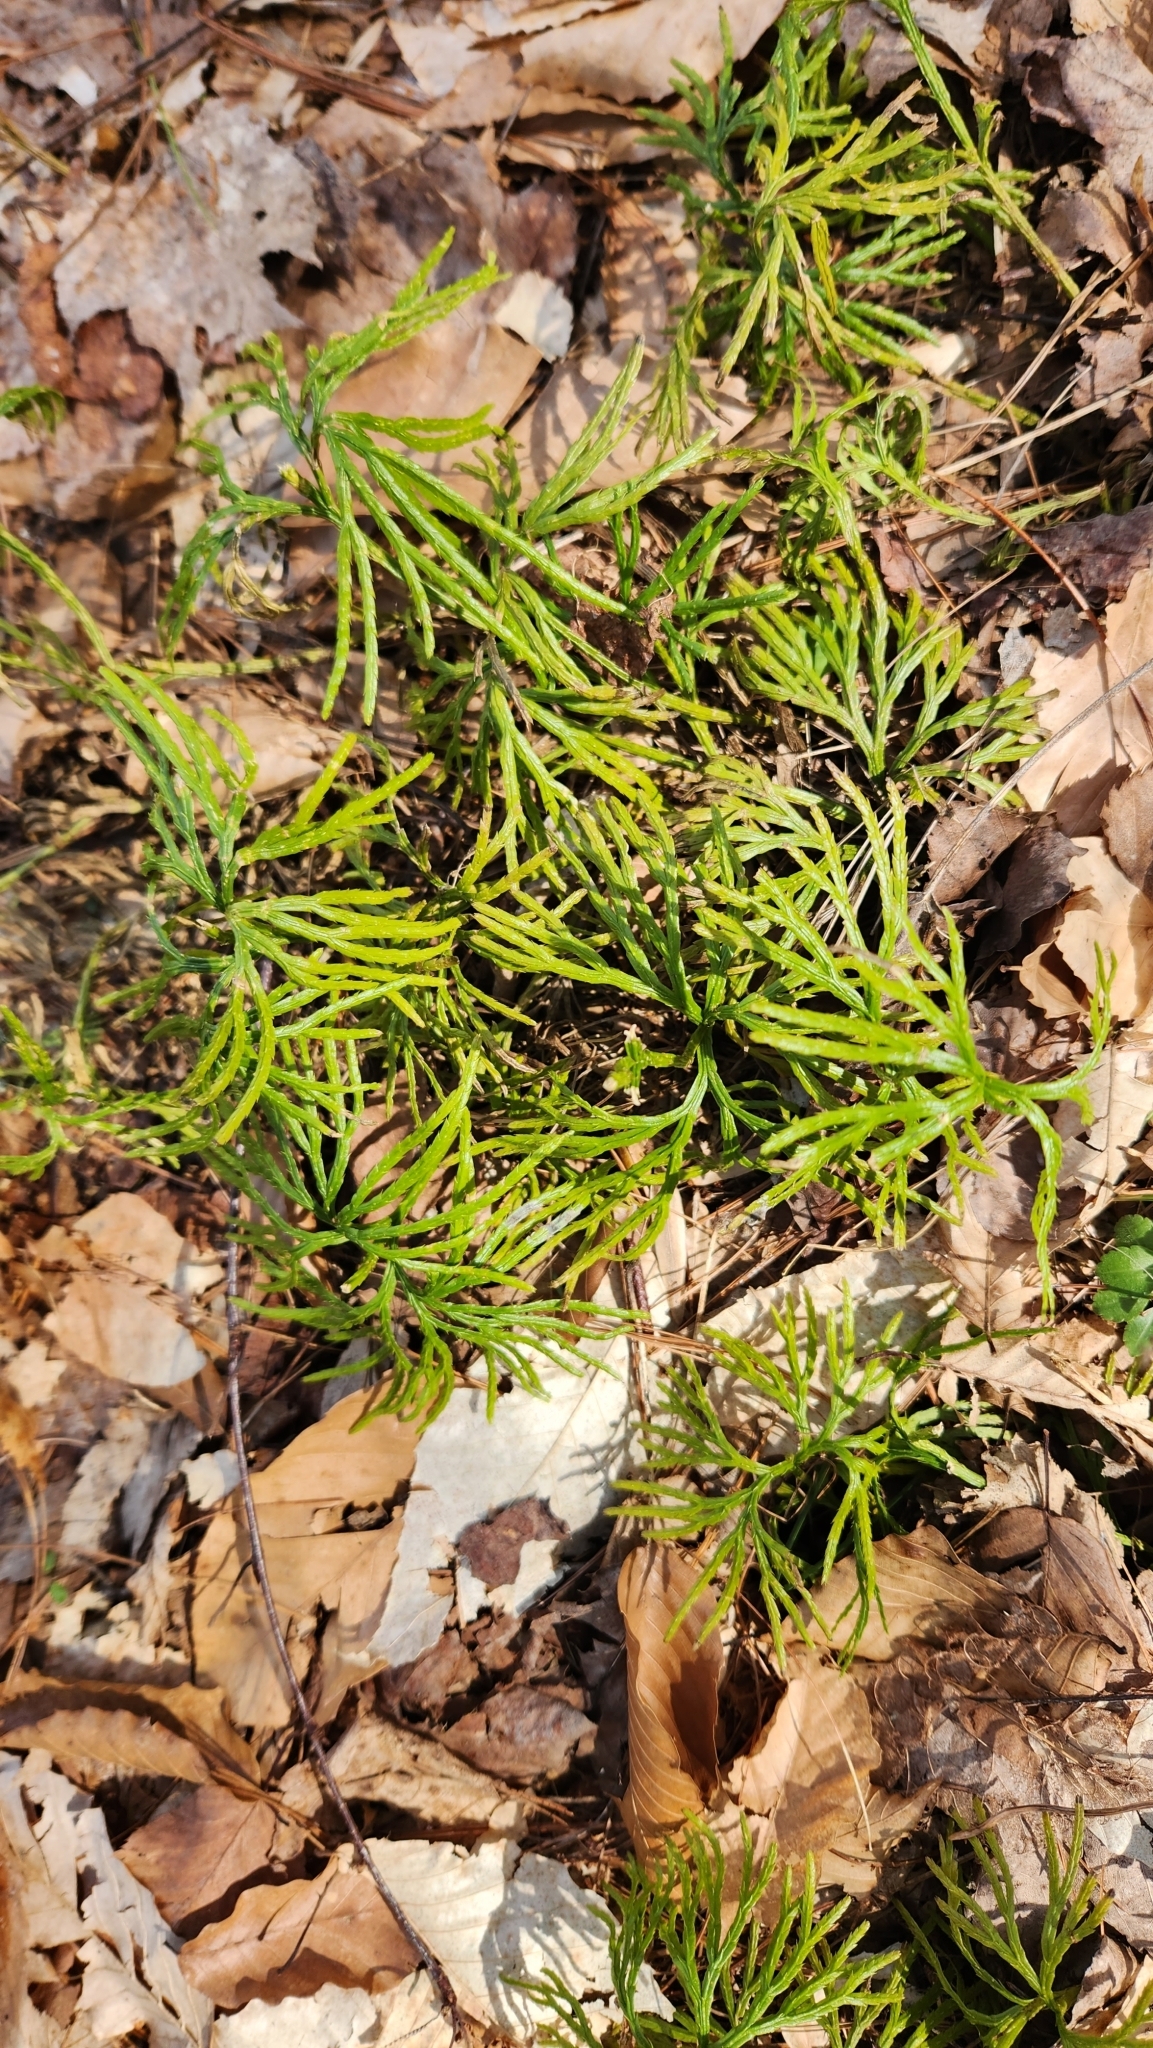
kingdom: Plantae
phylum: Tracheophyta
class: Lycopodiopsida
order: Lycopodiales
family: Lycopodiaceae
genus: Diphasiastrum
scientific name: Diphasiastrum digitatum
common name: Southern running-pine
